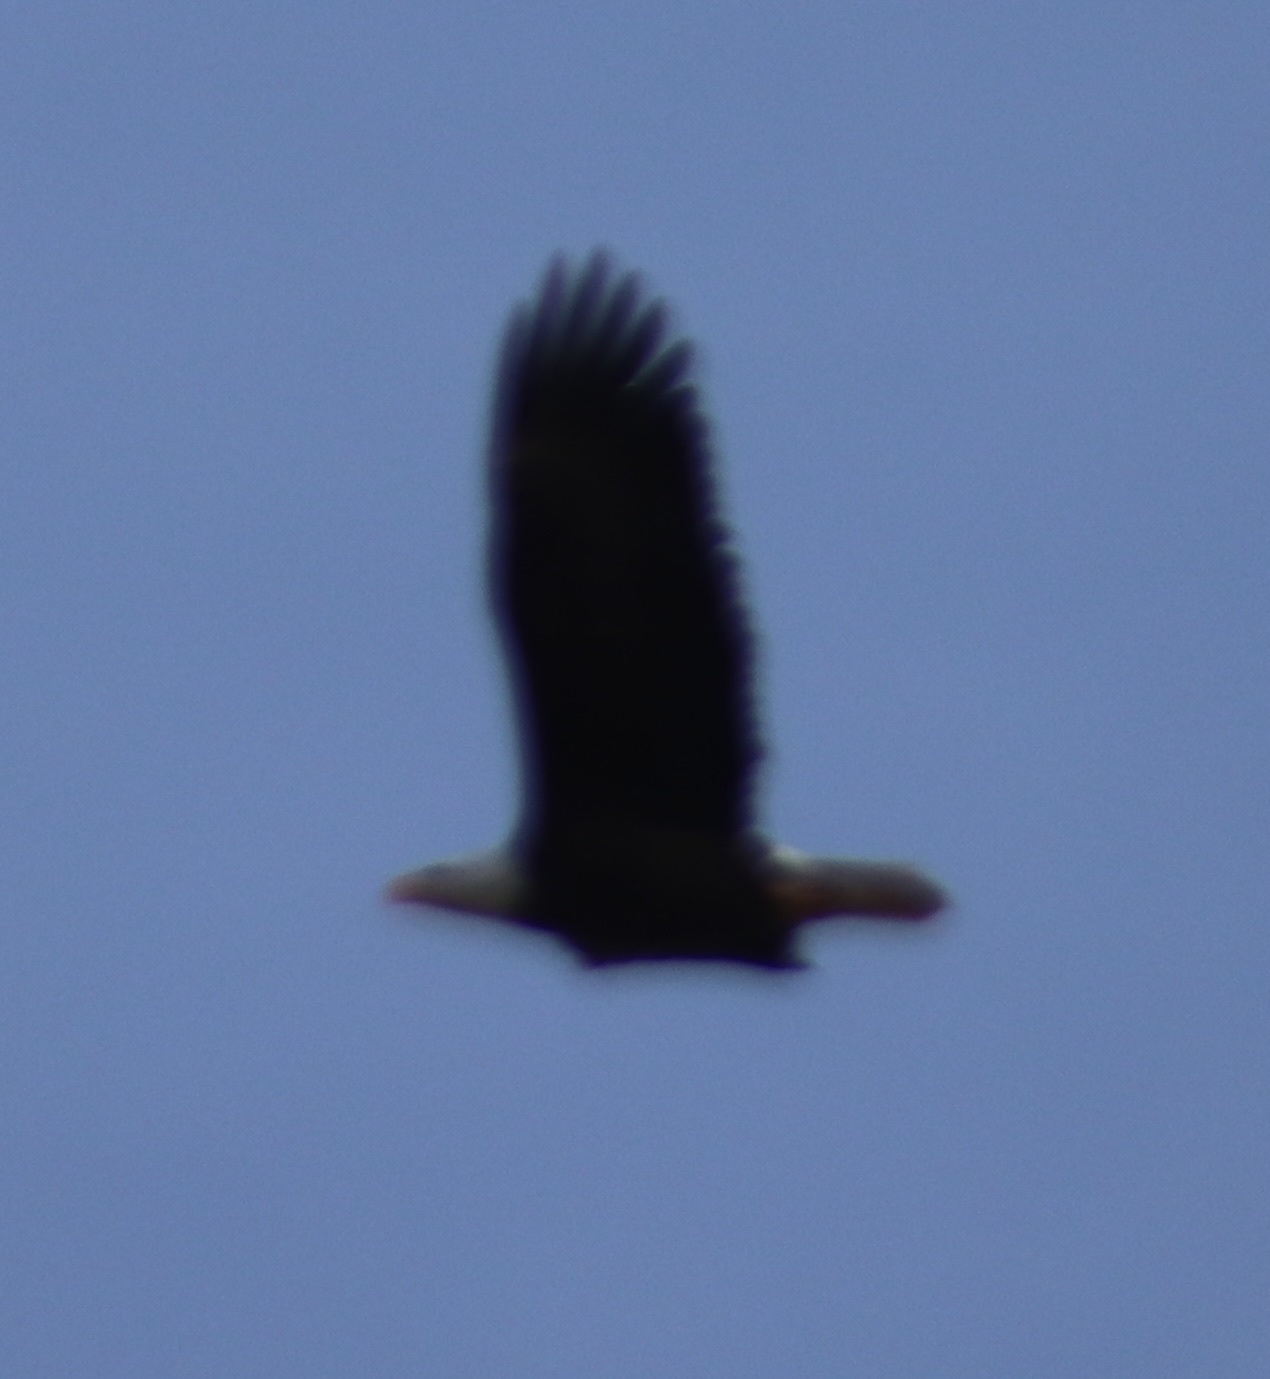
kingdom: Animalia
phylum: Chordata
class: Aves
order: Accipitriformes
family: Accipitridae
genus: Haliaeetus
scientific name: Haliaeetus leucocephalus
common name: Bald eagle
